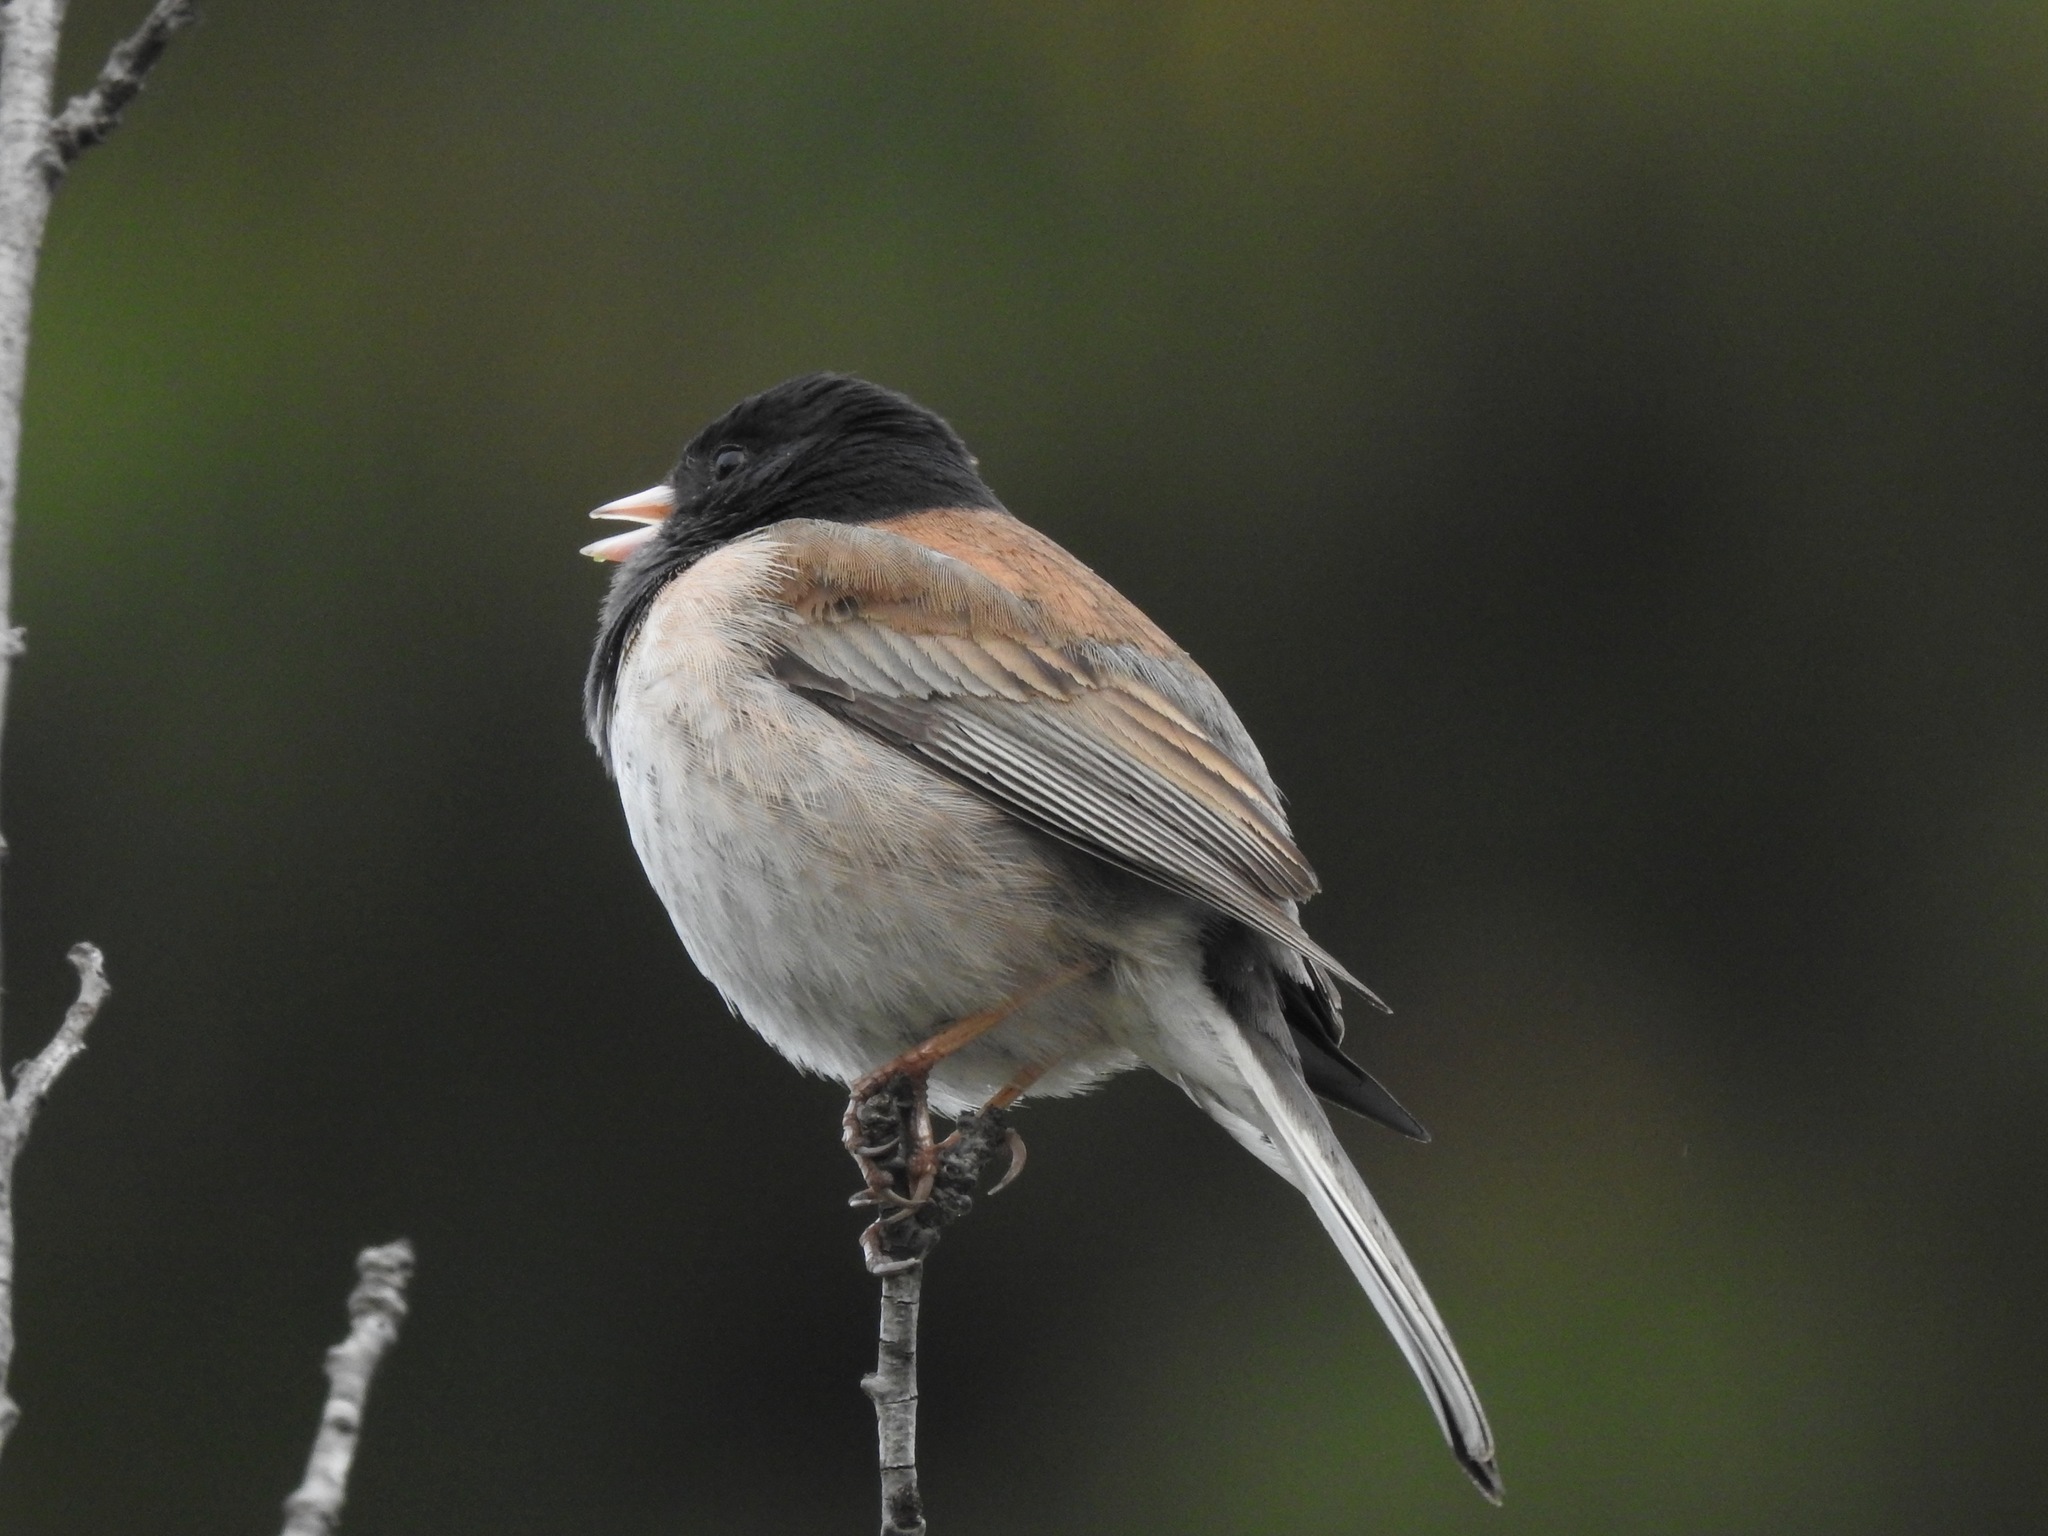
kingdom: Animalia
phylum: Chordata
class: Aves
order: Passeriformes
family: Passerellidae
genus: Junco
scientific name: Junco hyemalis
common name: Dark-eyed junco
